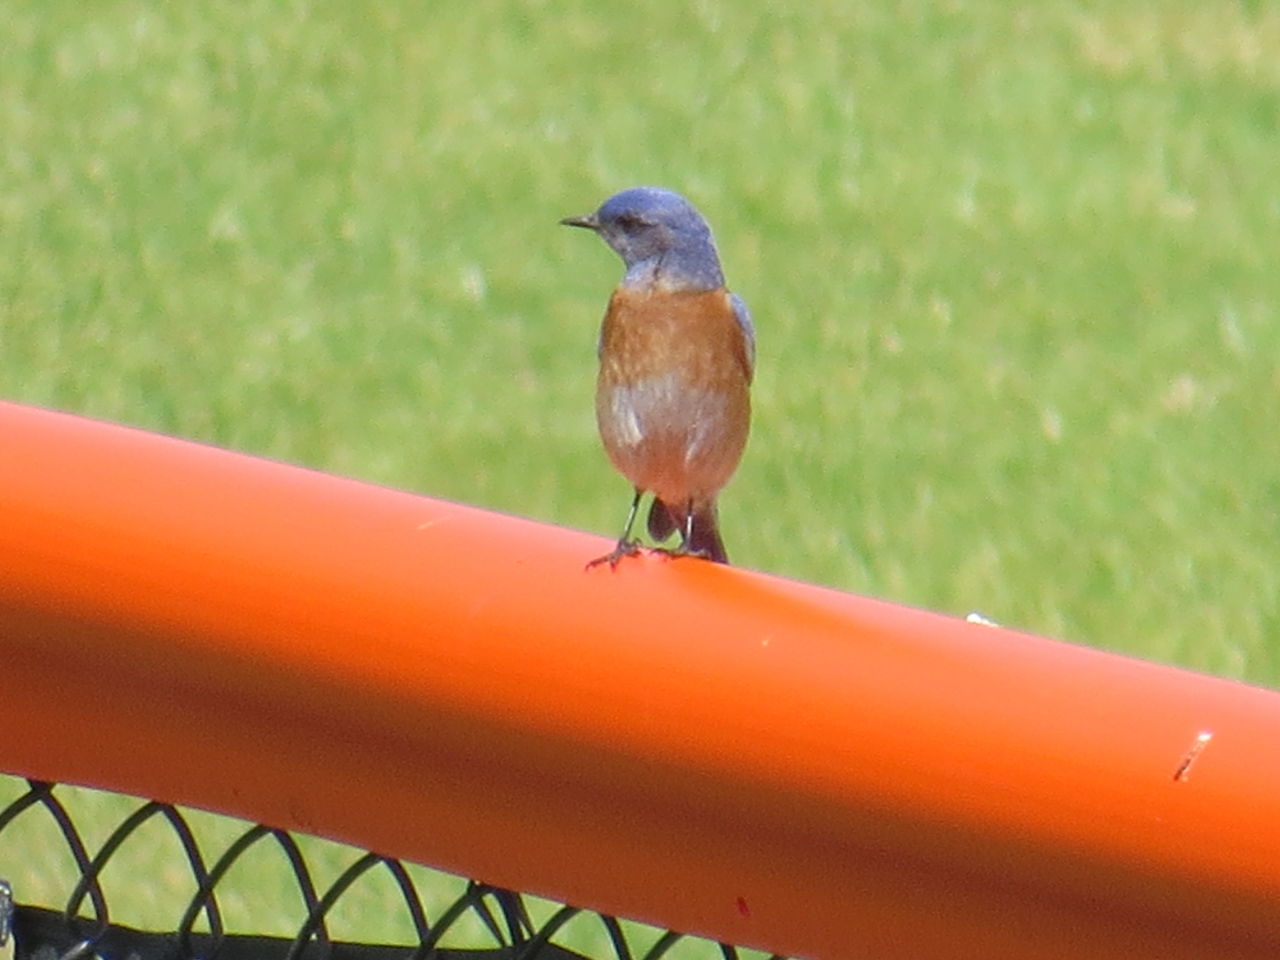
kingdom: Animalia
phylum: Chordata
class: Aves
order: Passeriformes
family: Turdidae
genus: Sialia
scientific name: Sialia mexicana
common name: Western bluebird
